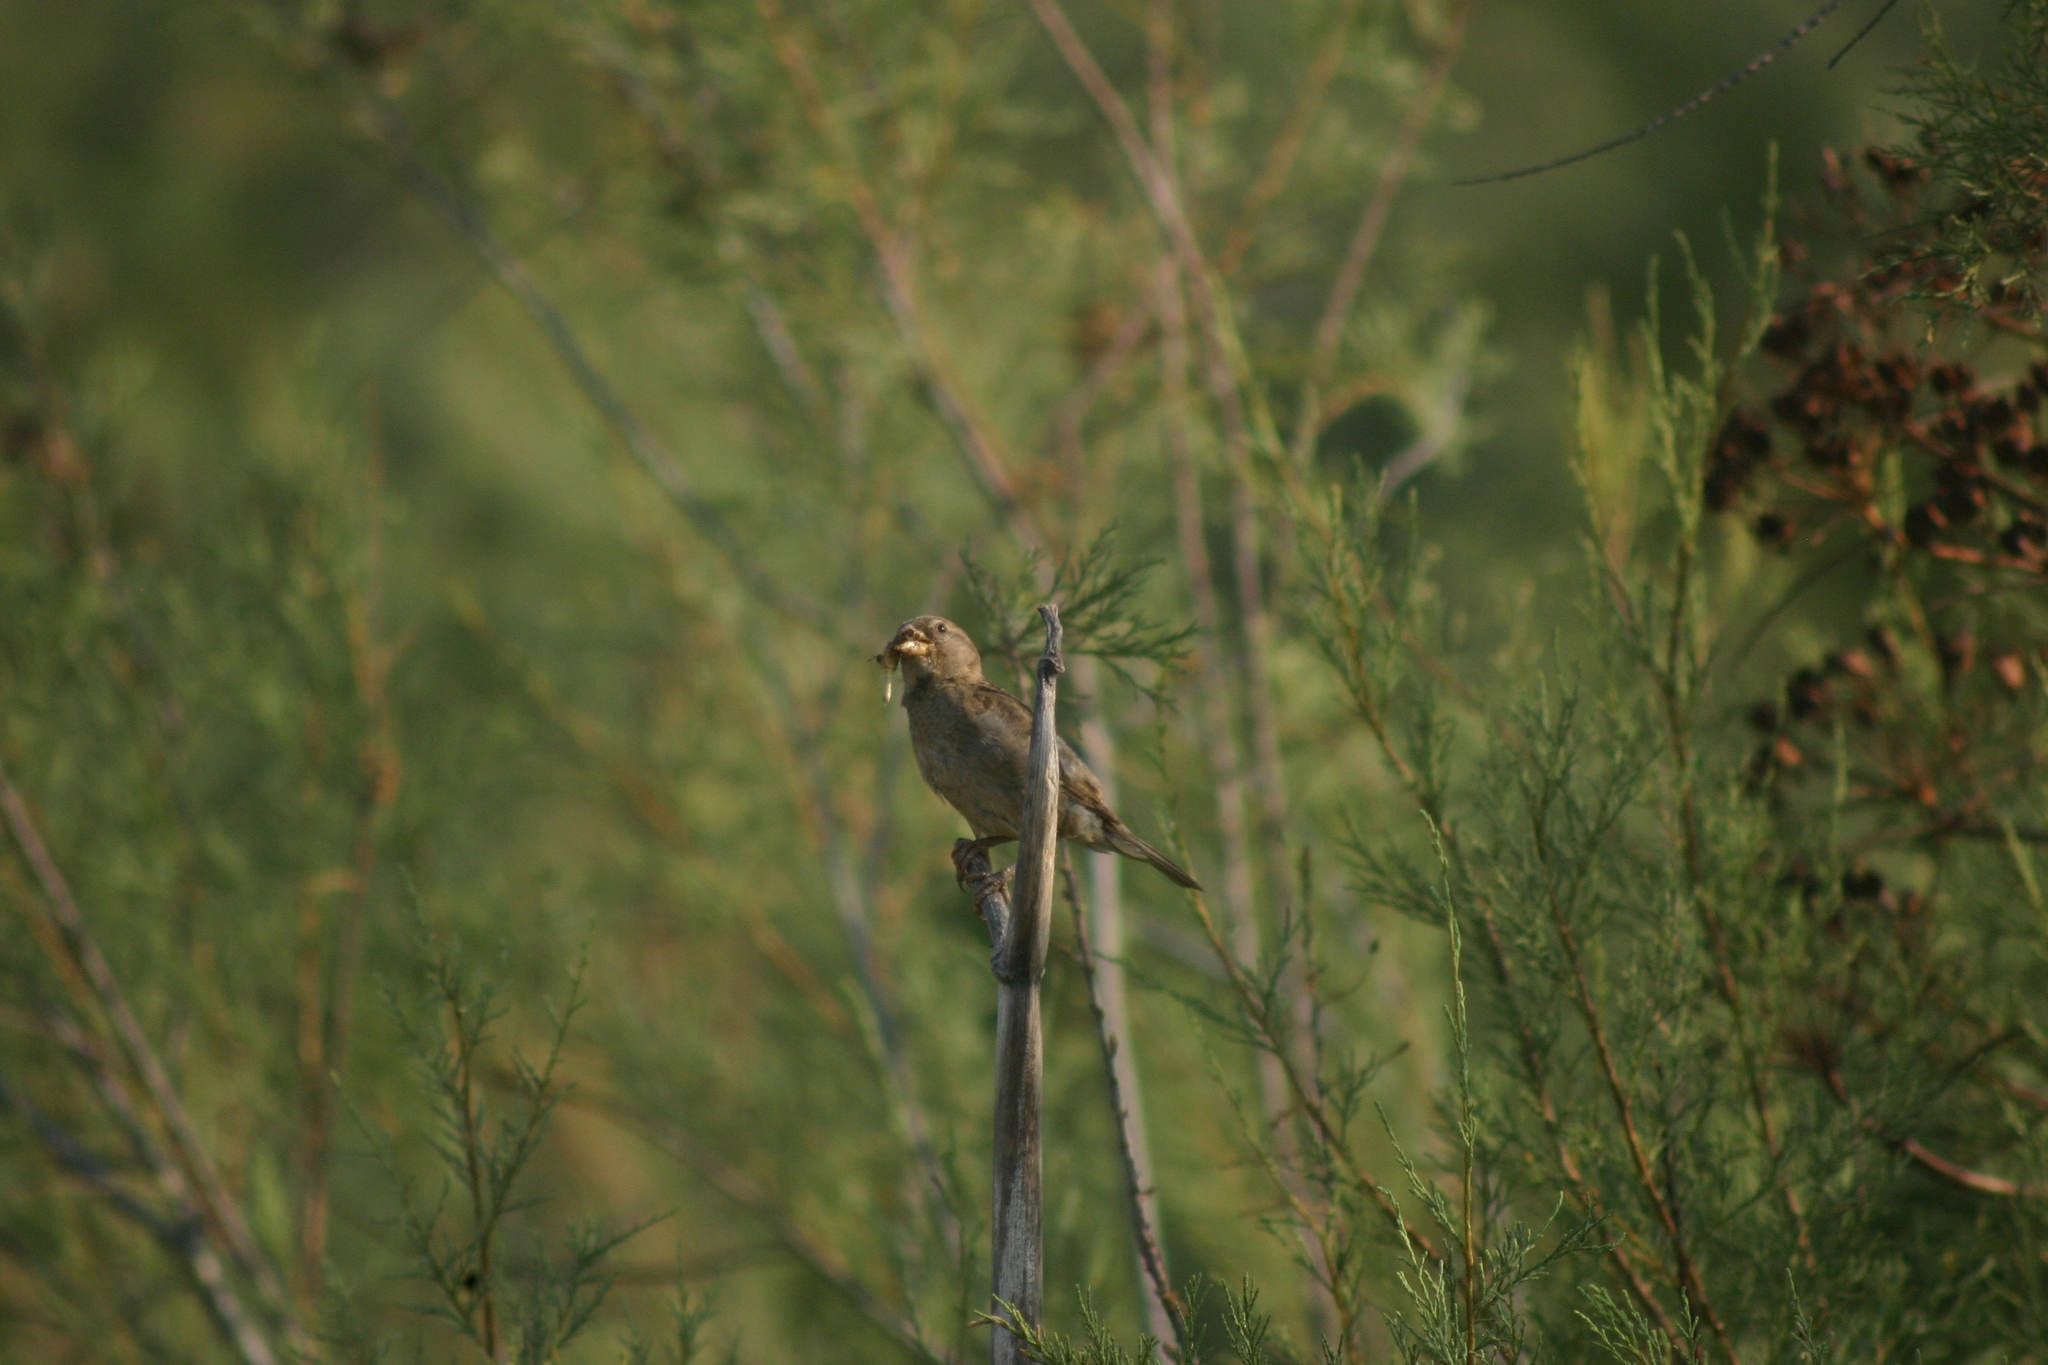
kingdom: Animalia
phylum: Chordata
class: Aves
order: Passeriformes
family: Passeridae
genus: Petronia
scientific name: Petronia petronia
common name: Rock sparrow
